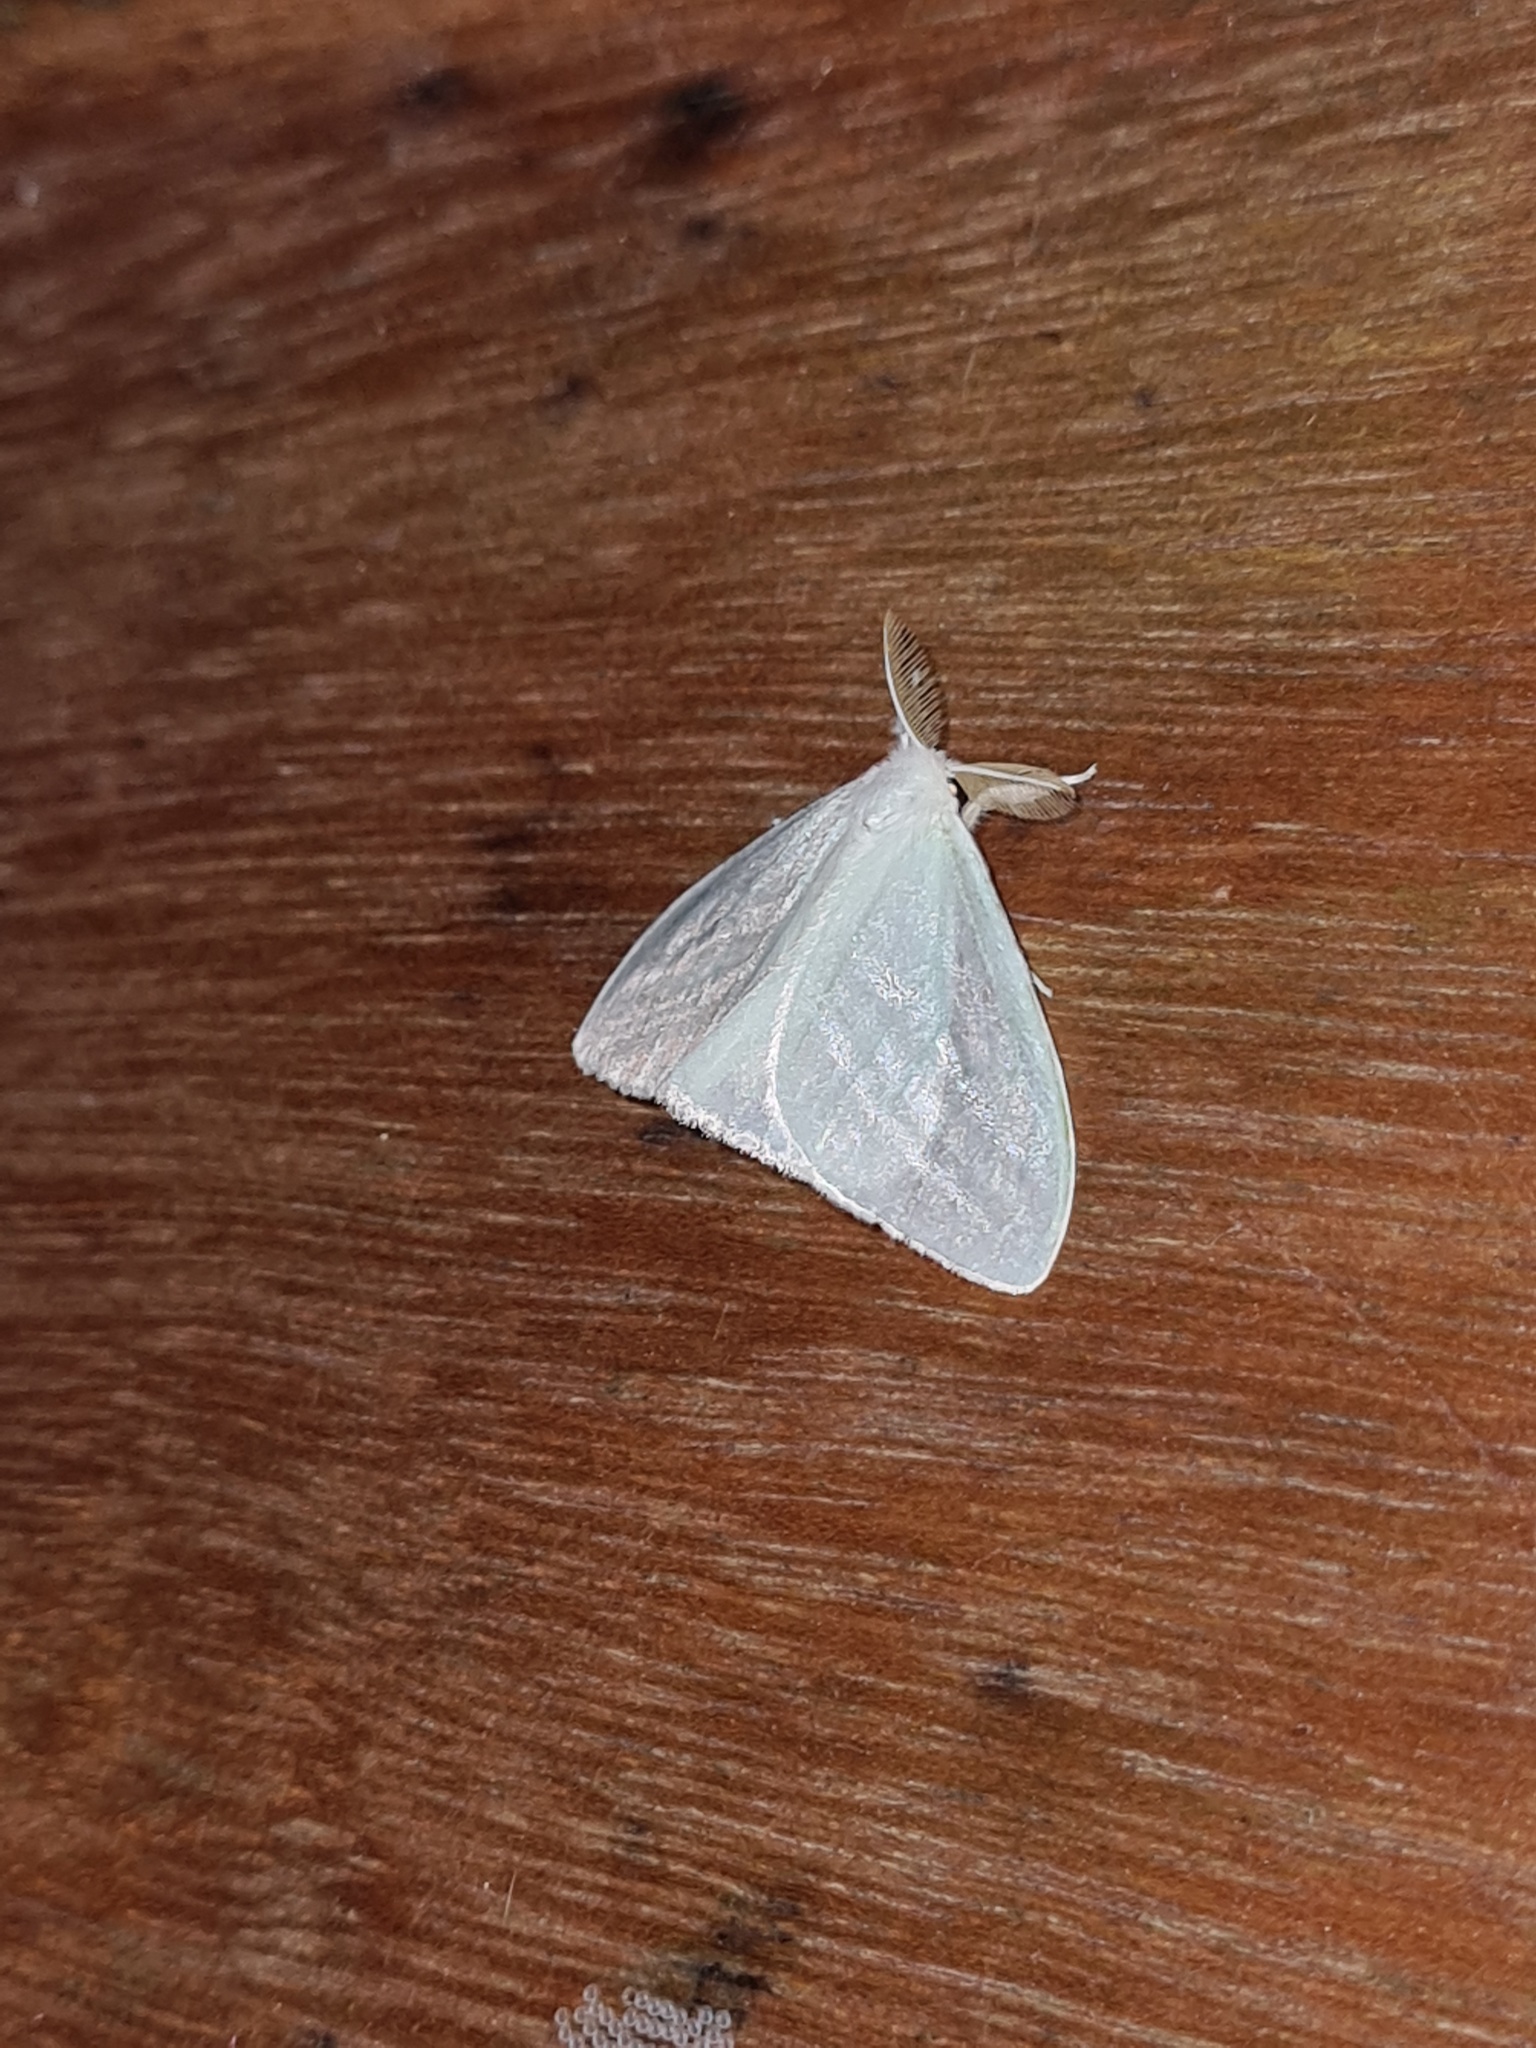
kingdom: Animalia
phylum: Arthropoda
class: Insecta
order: Lepidoptera
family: Erebidae
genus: Caviria
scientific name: Caviria regina
